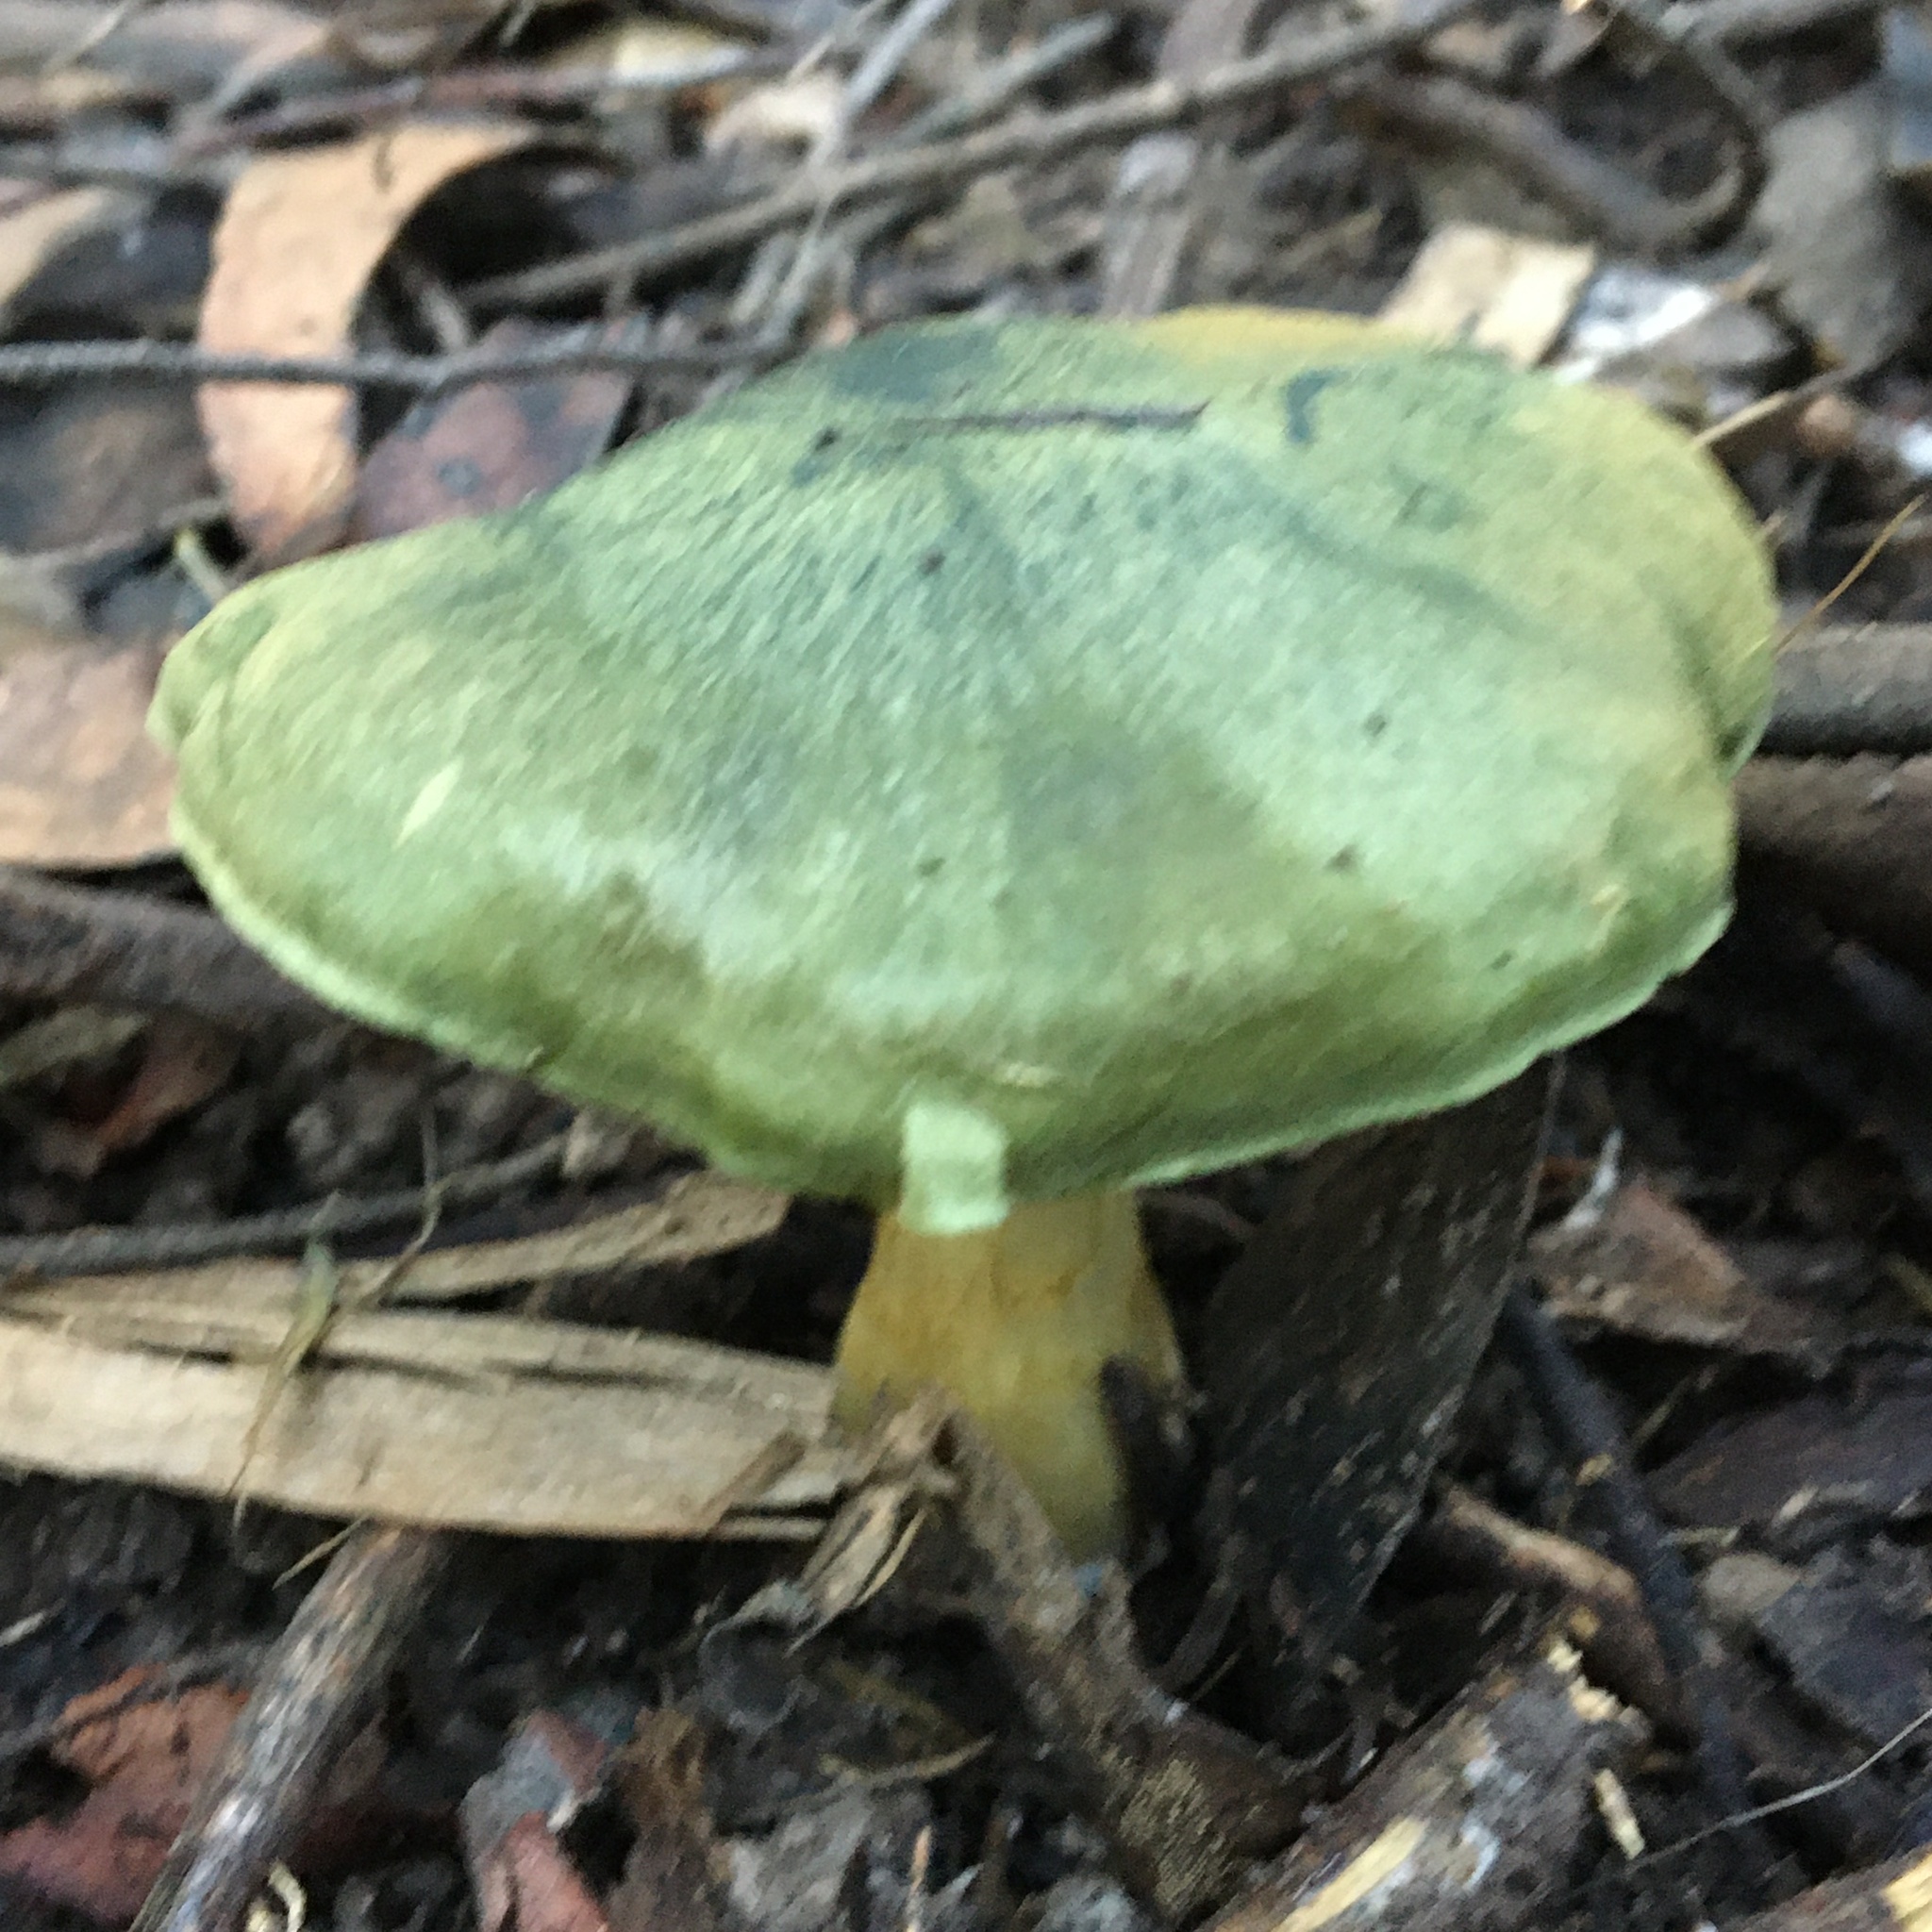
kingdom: Fungi
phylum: Basidiomycota
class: Agaricomycetes
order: Agaricales
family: Cortinariaceae
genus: Cortinarius
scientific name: Cortinarius austrovenetus
